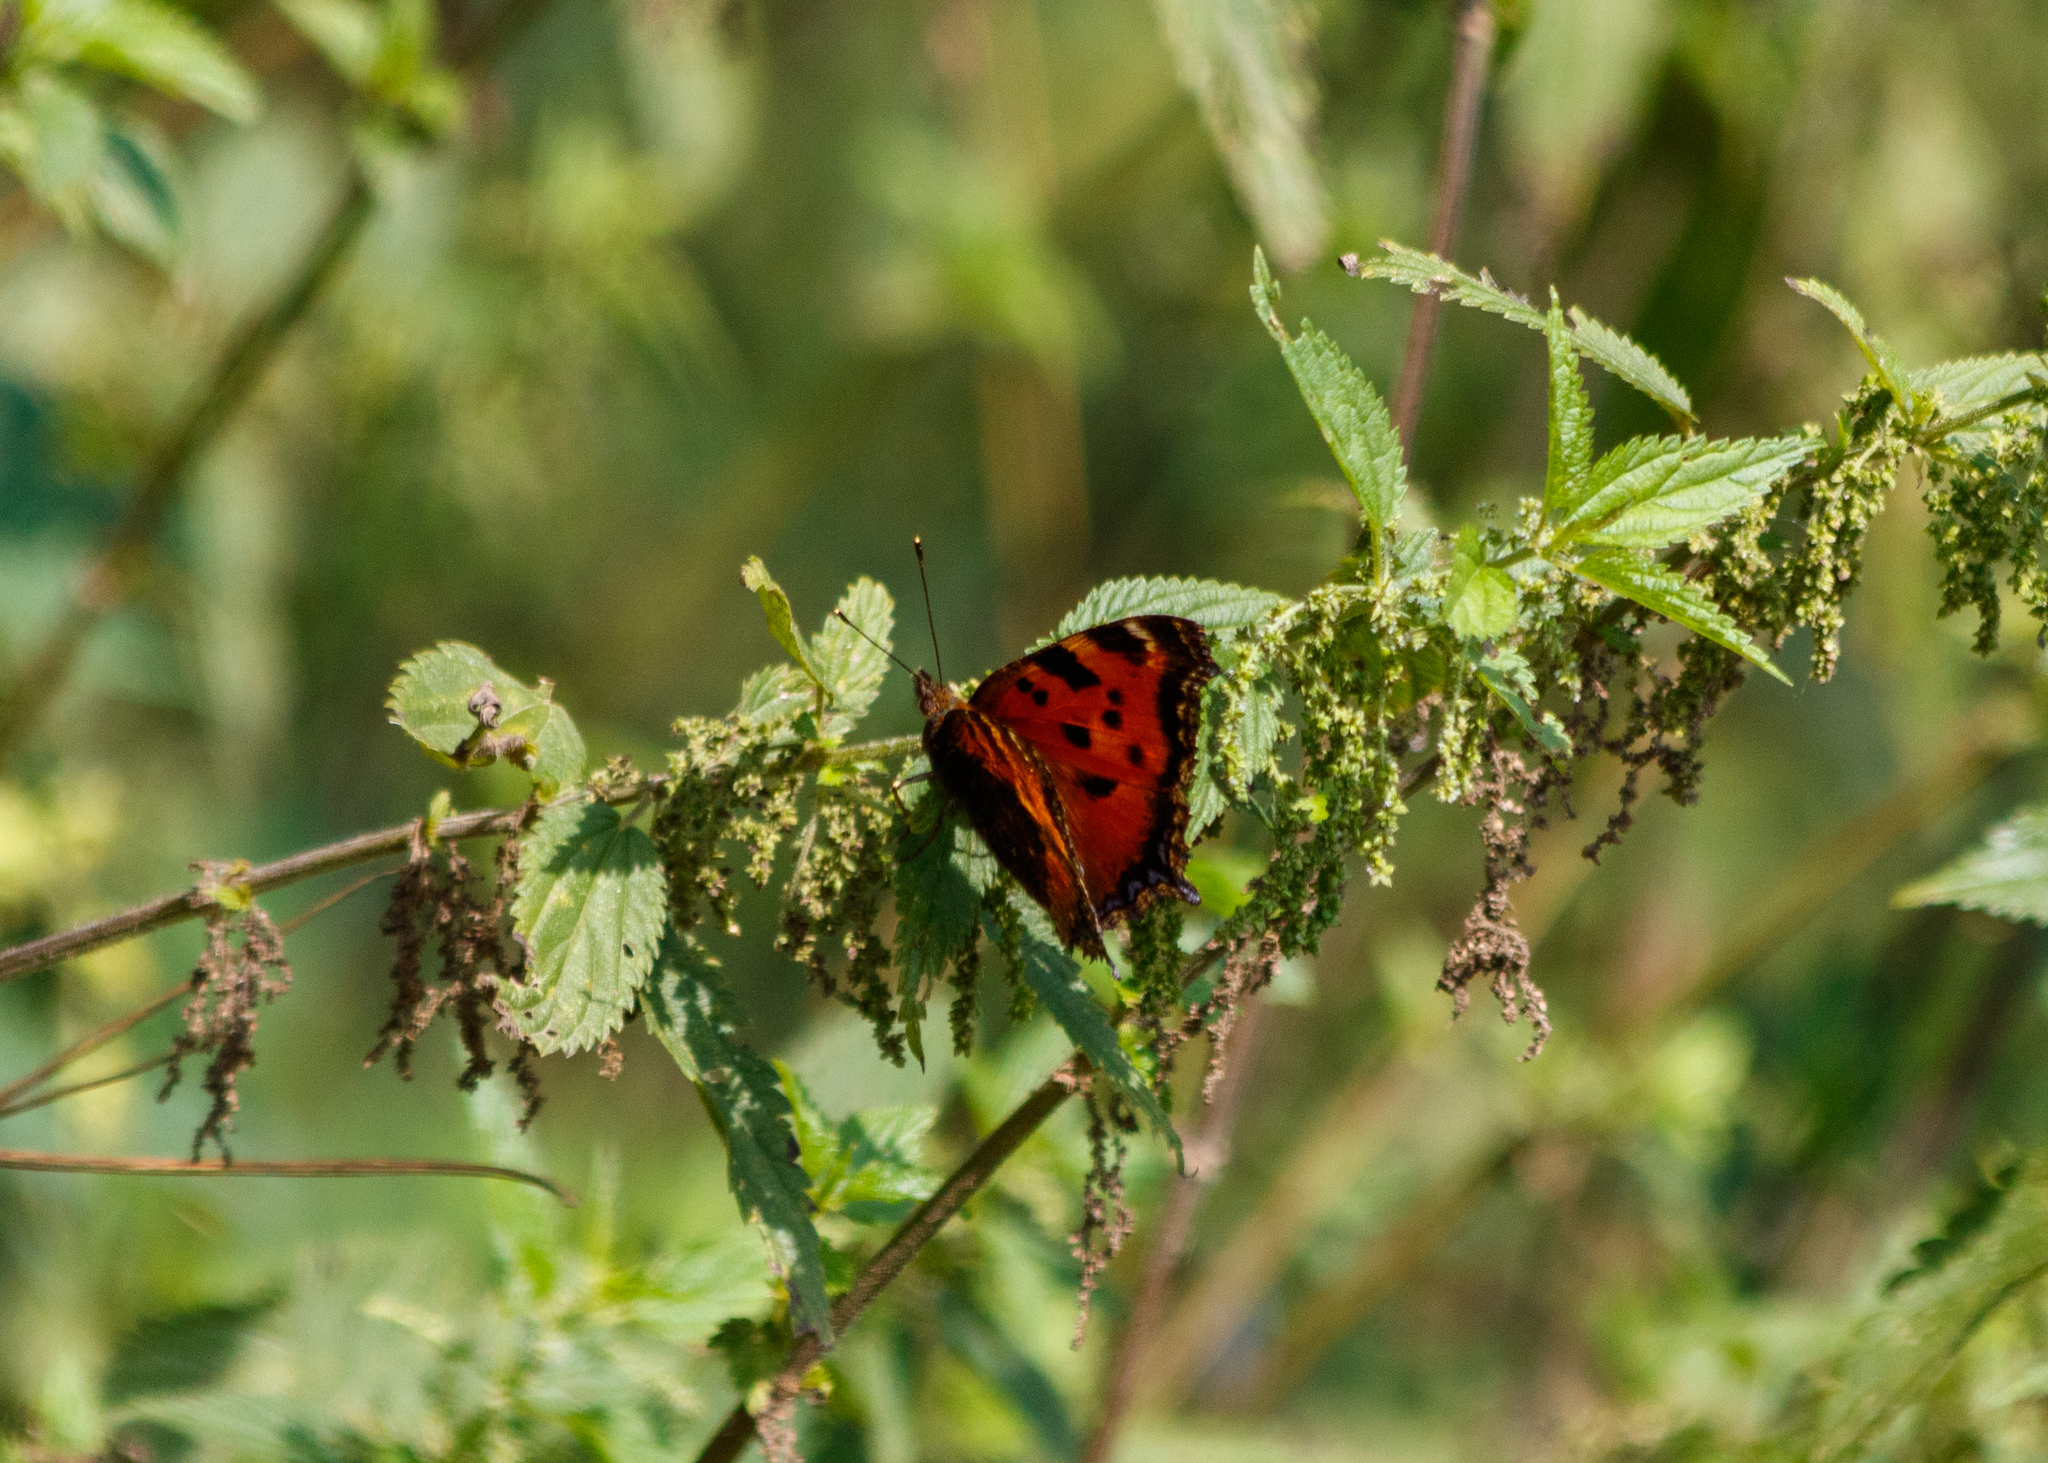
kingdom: Animalia
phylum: Arthropoda
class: Insecta
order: Lepidoptera
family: Nymphalidae
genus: Nymphalis
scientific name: Nymphalis xanthomelas
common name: Scarce tortoiseshell
